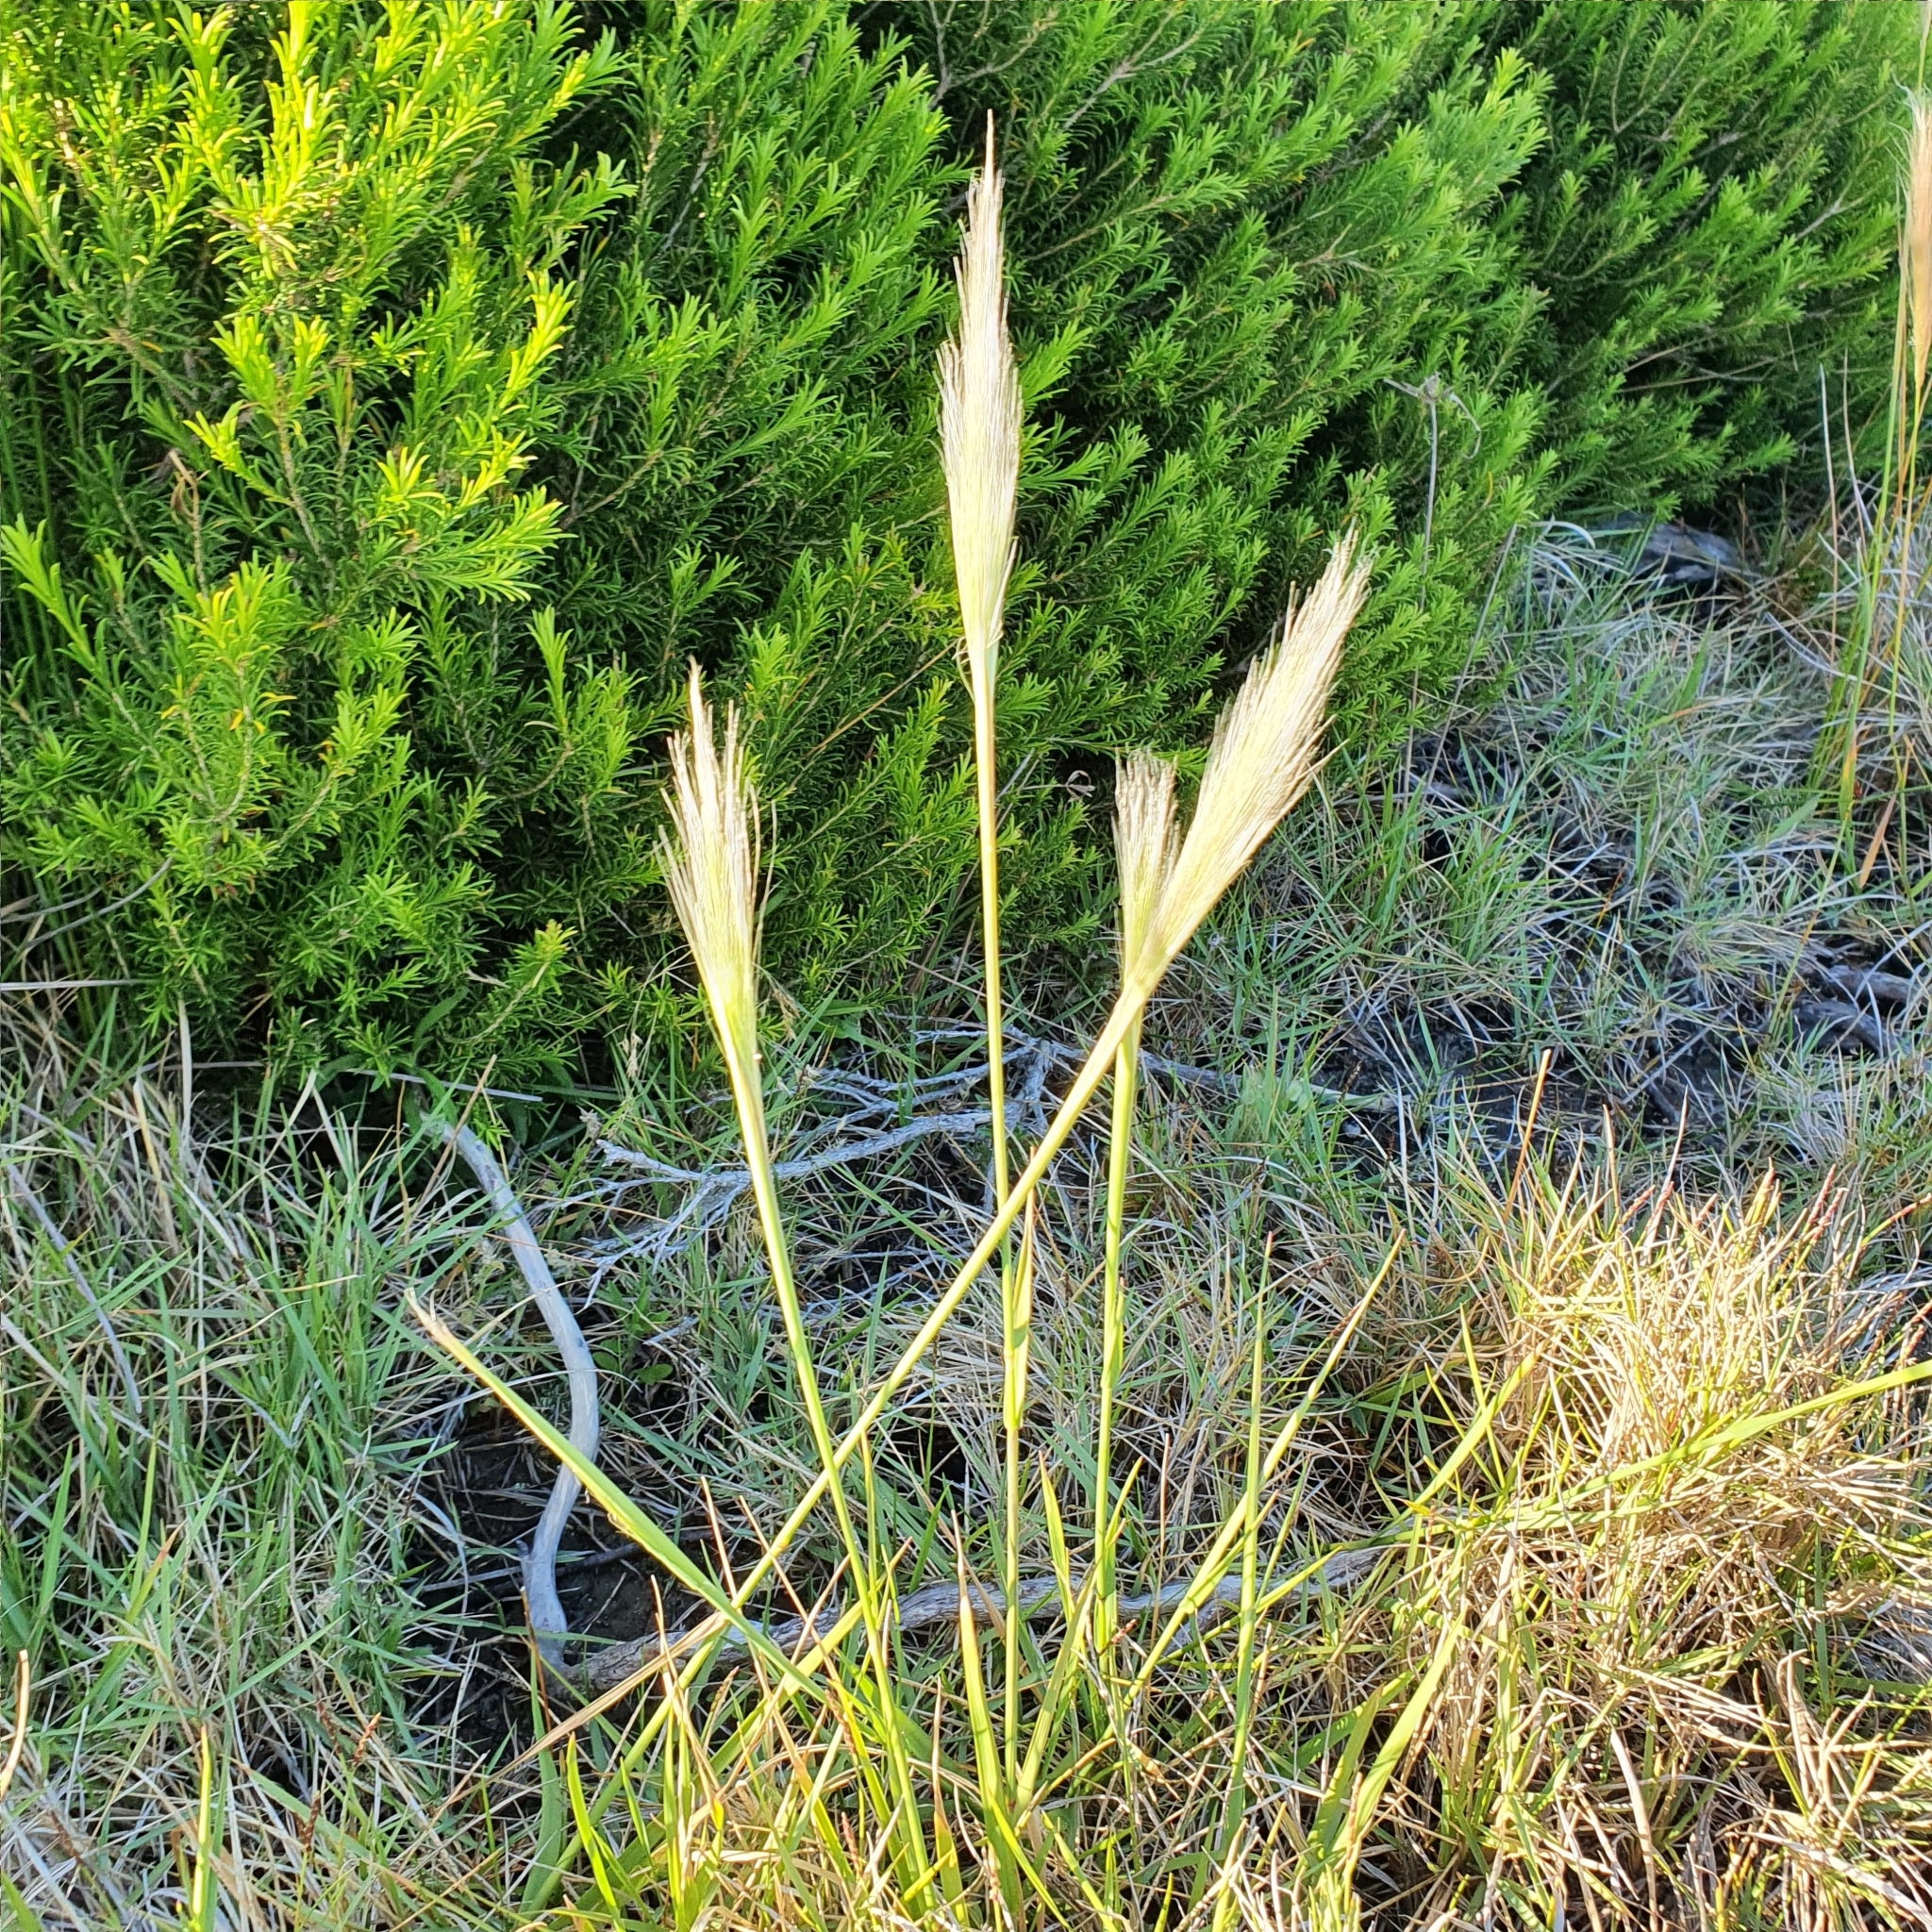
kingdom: Plantae
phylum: Tracheophyta
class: Liliopsida
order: Poales
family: Poaceae
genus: Dichelachne
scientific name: Dichelachne crinita
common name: Clovenfoot plumegrass
